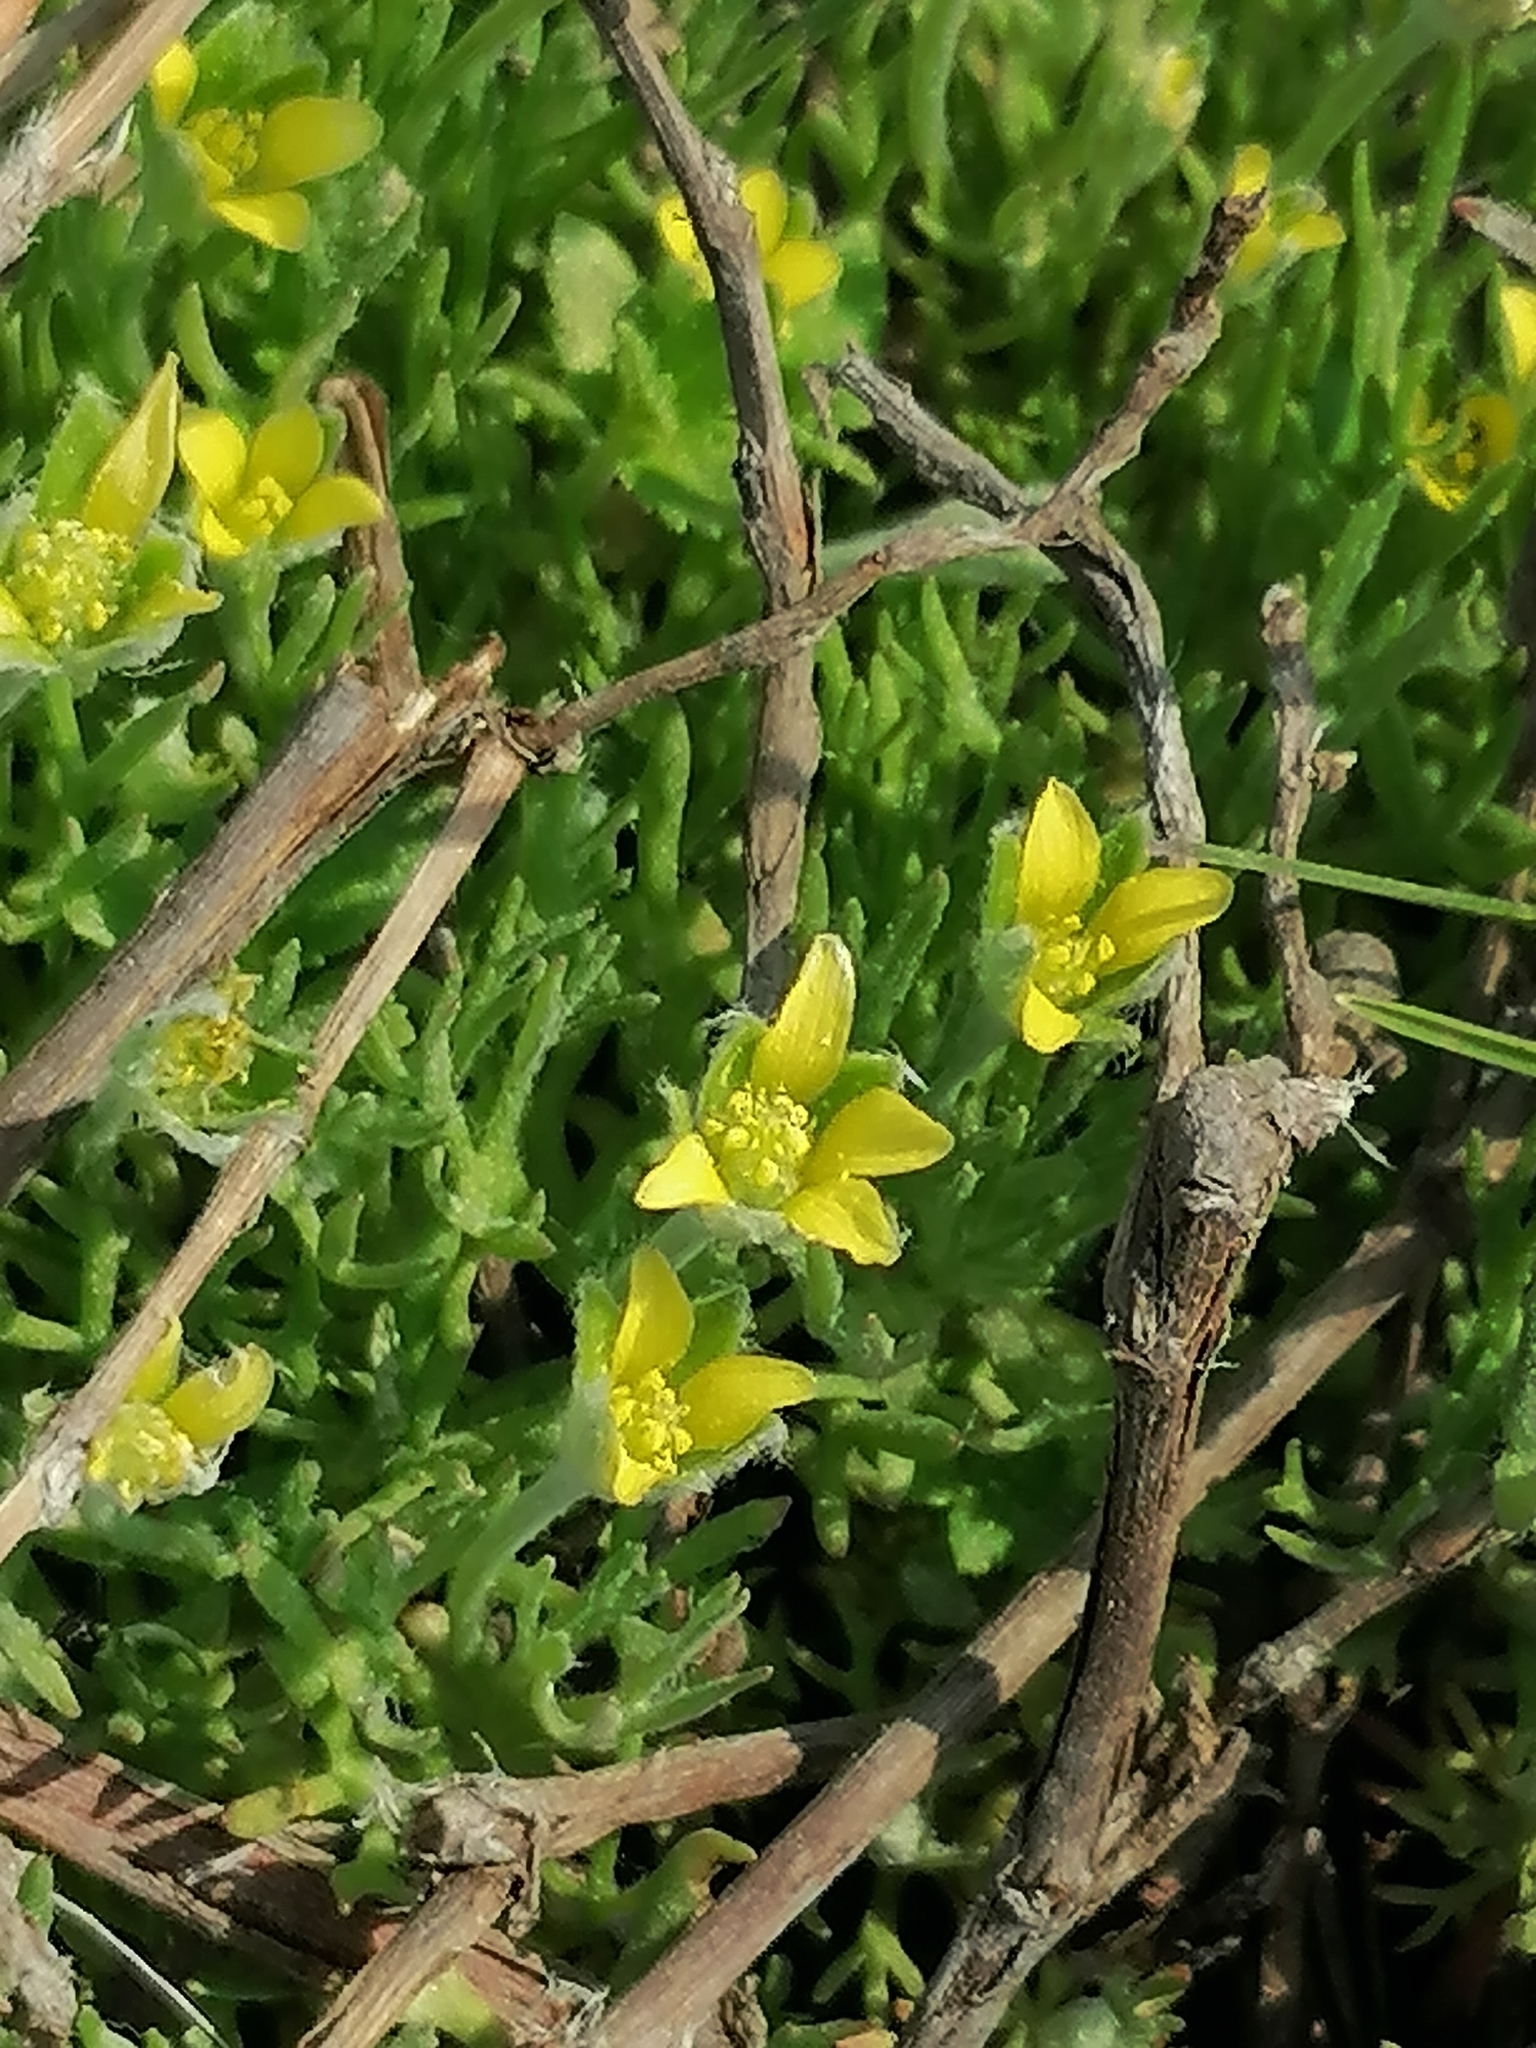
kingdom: Plantae
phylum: Tracheophyta
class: Magnoliopsida
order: Ranunculales
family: Ranunculaceae
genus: Ceratocephala
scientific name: Ceratocephala orthoceras
